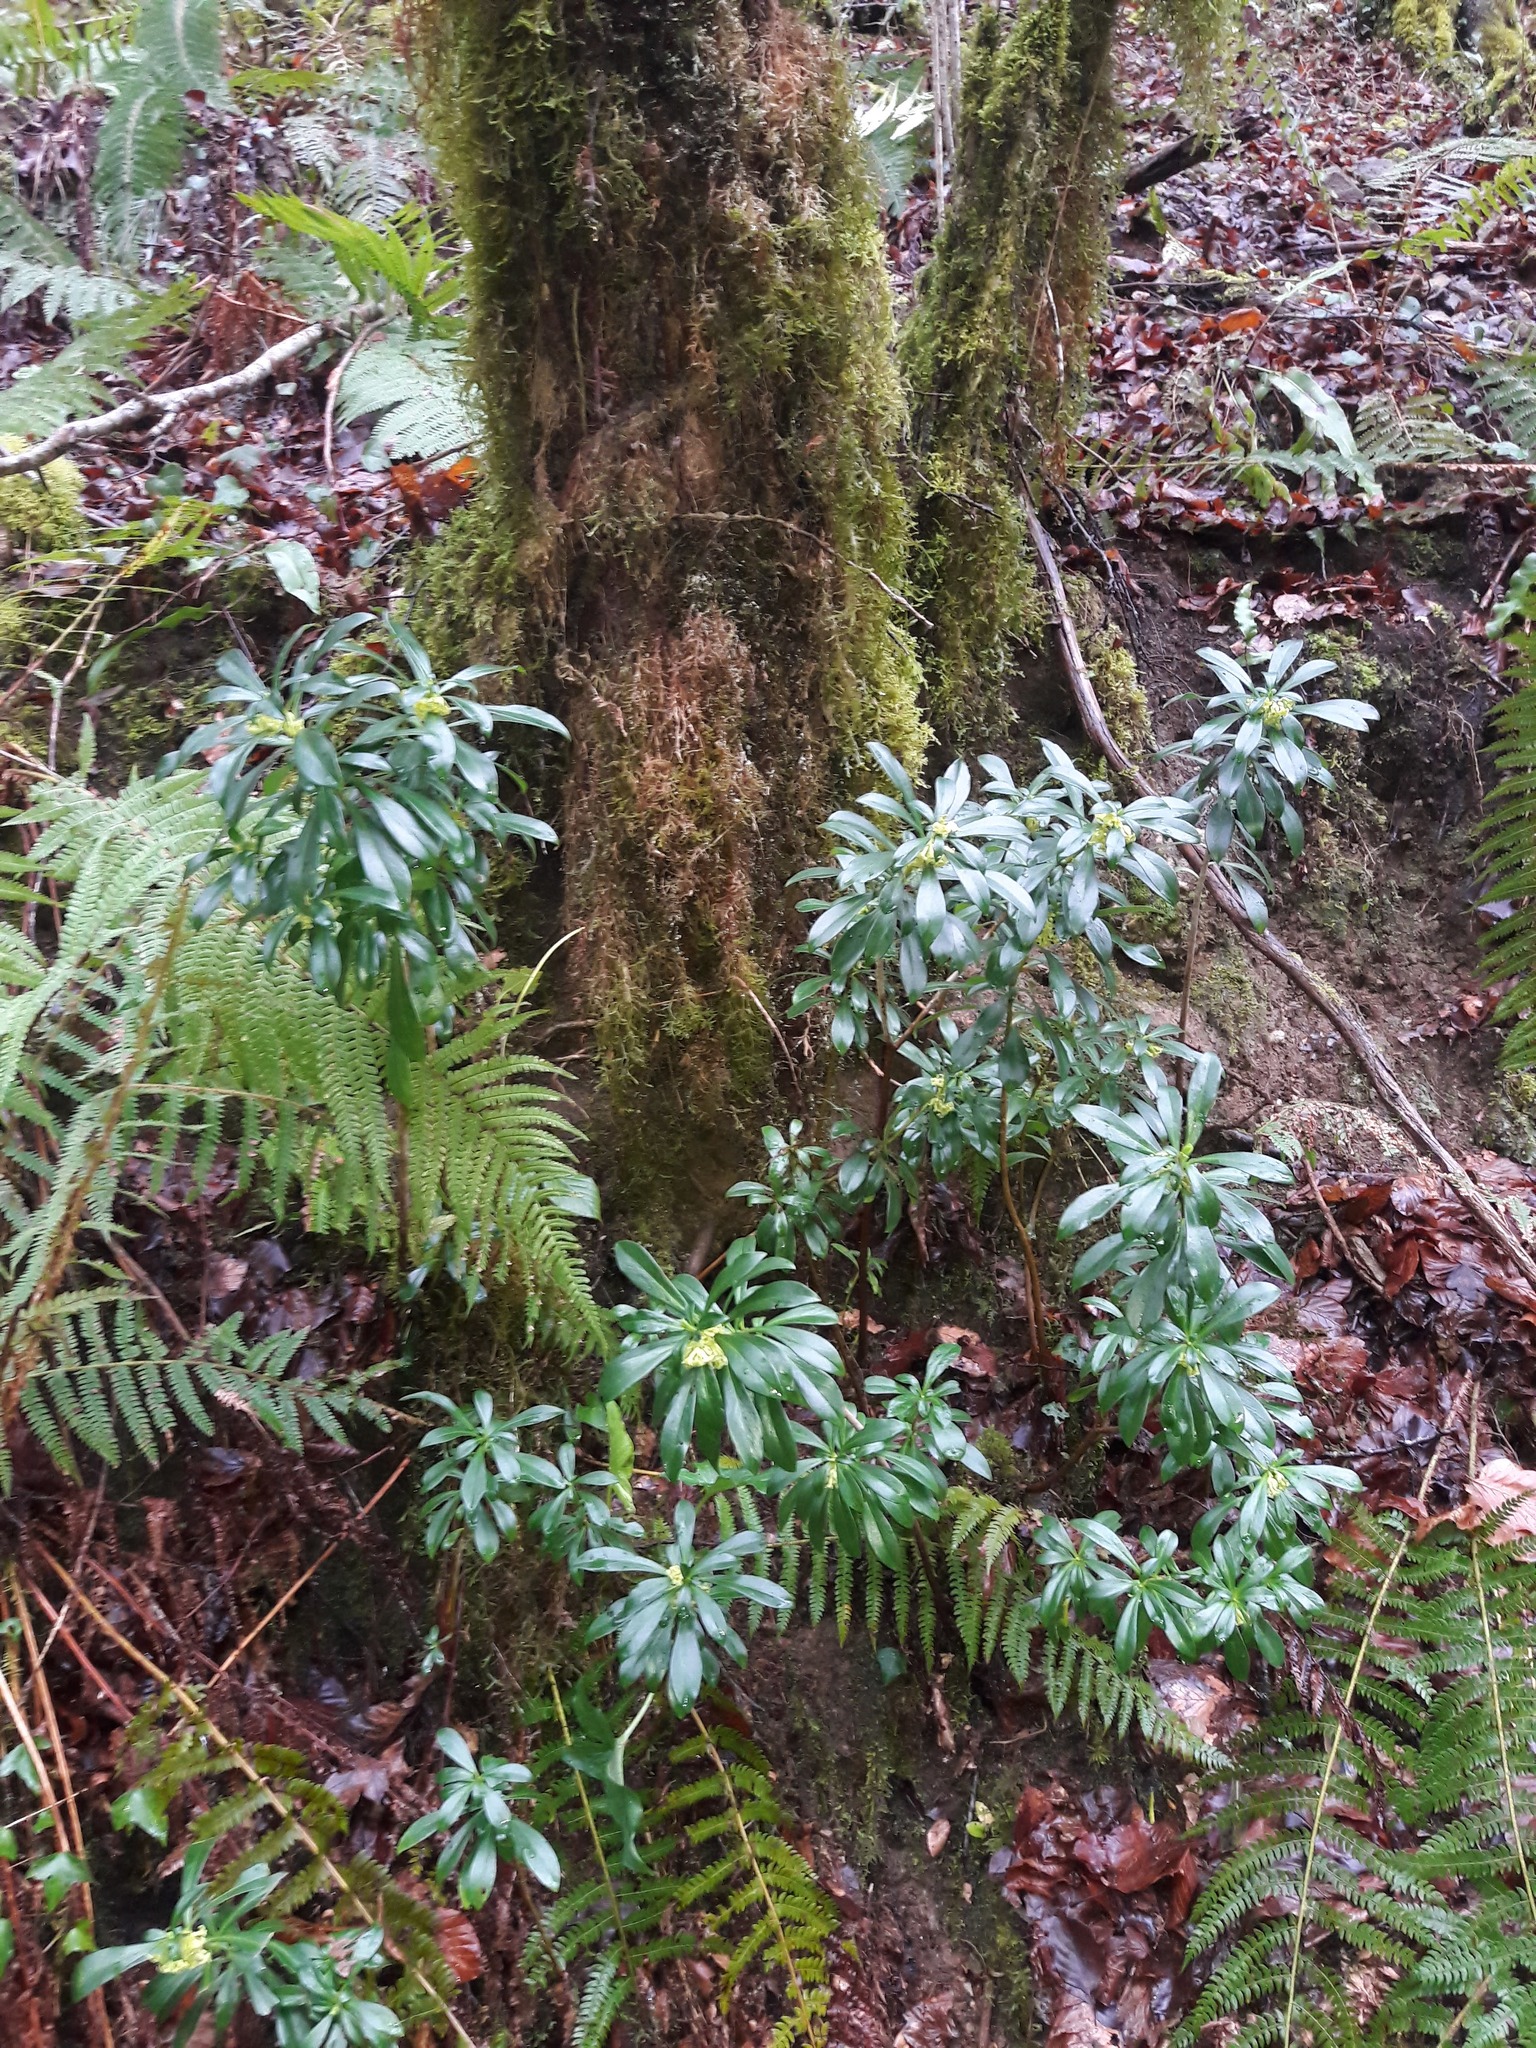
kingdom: Plantae
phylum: Tracheophyta
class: Magnoliopsida
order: Malvales
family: Thymelaeaceae
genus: Daphne
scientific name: Daphne laureola
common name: Spurge-laurel
